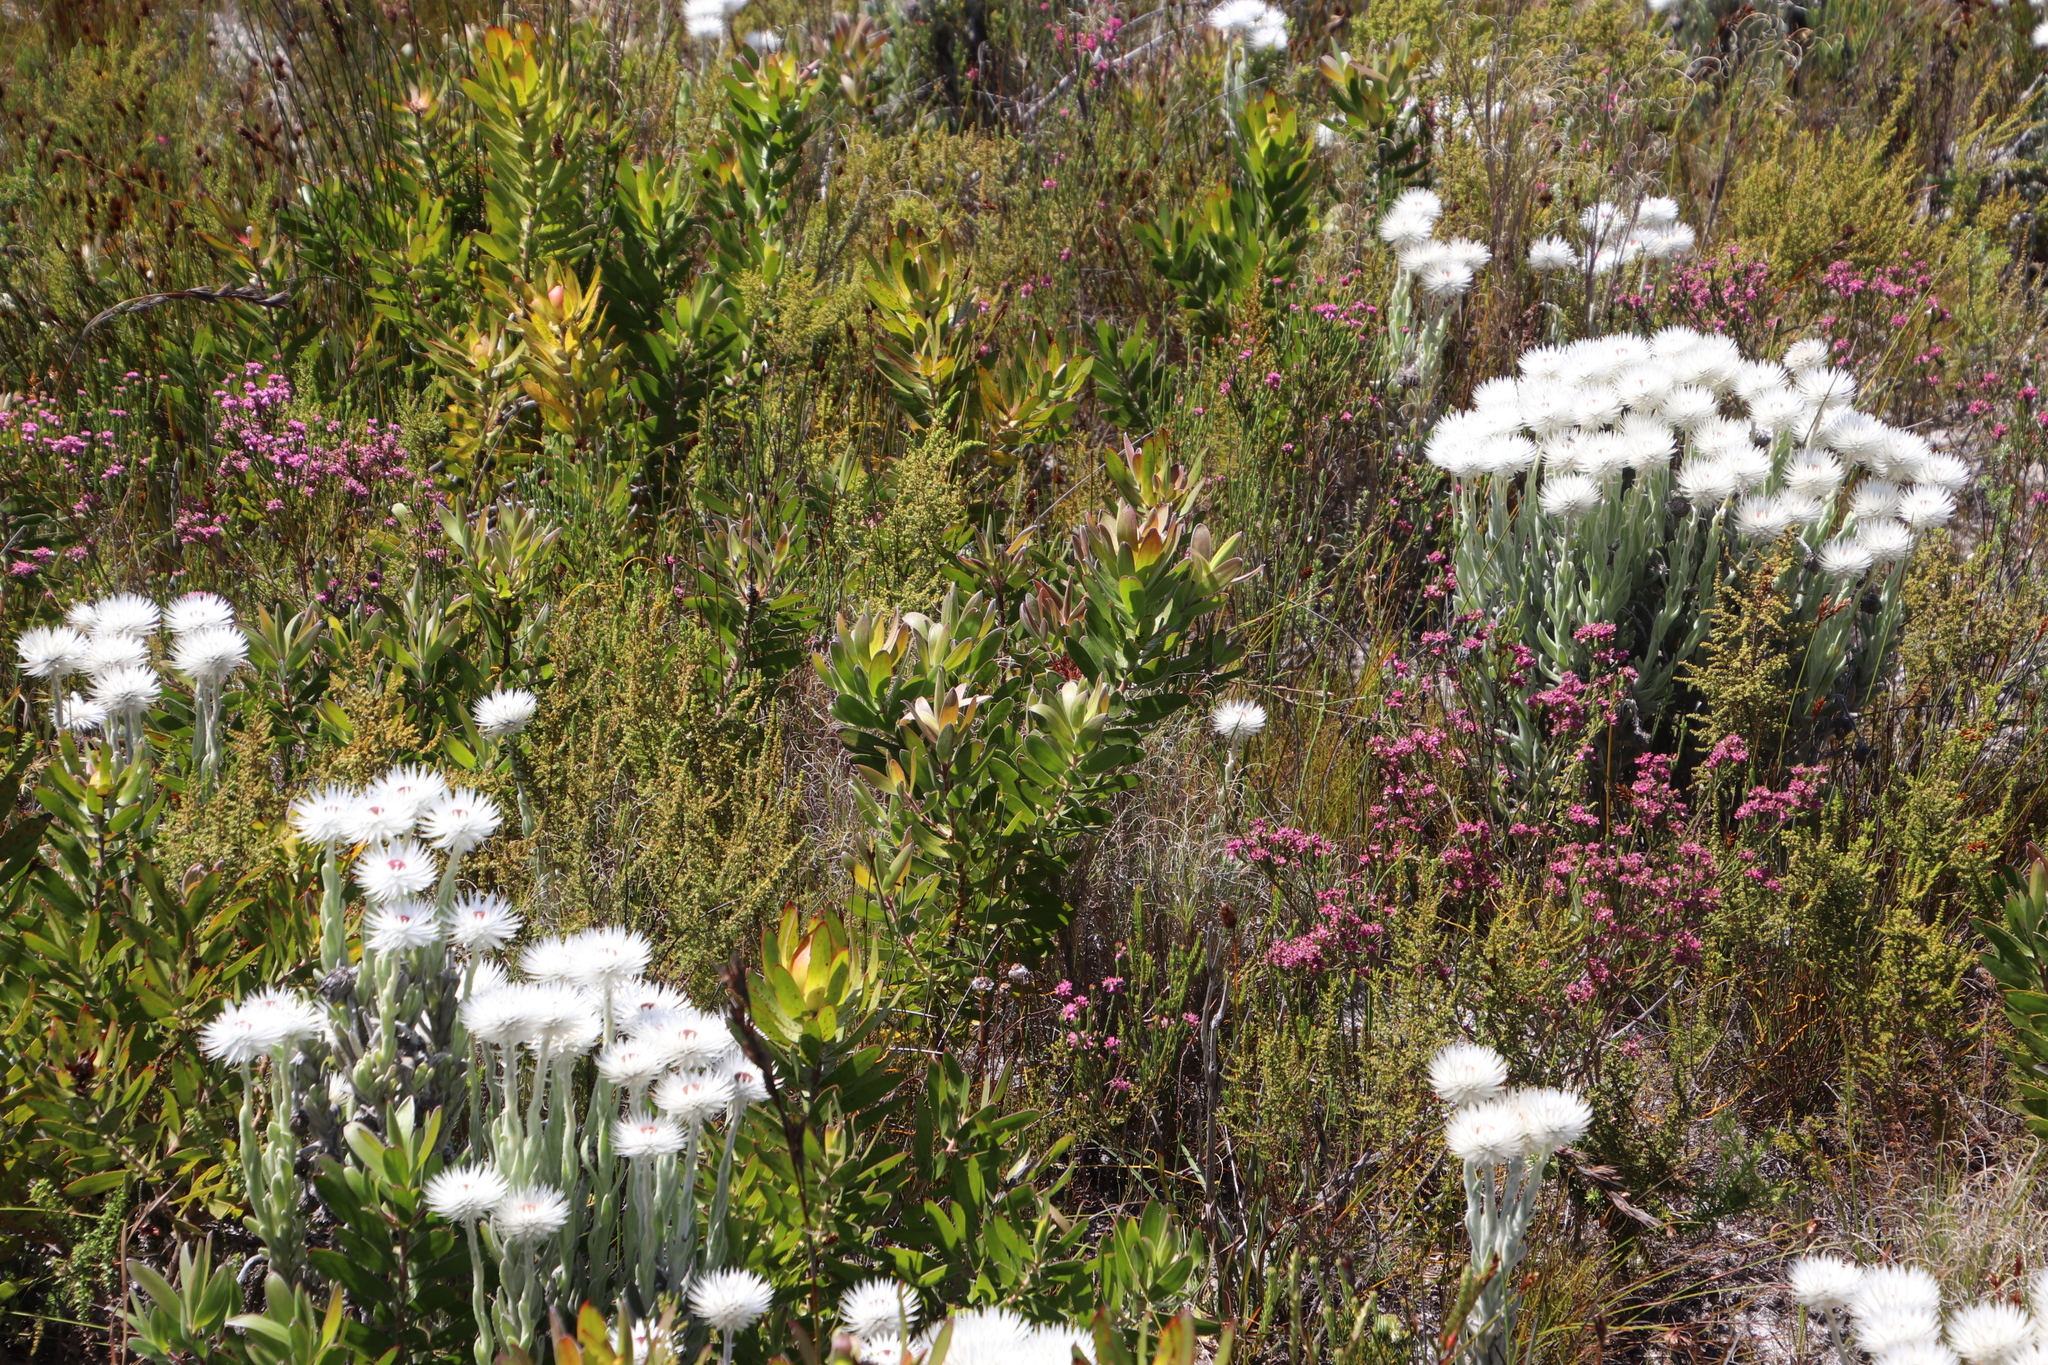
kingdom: Plantae
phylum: Tracheophyta
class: Magnoliopsida
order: Proteales
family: Proteaceae
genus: Leucadendron
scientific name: Leucadendron laureolum
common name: Golden sunshinebush
